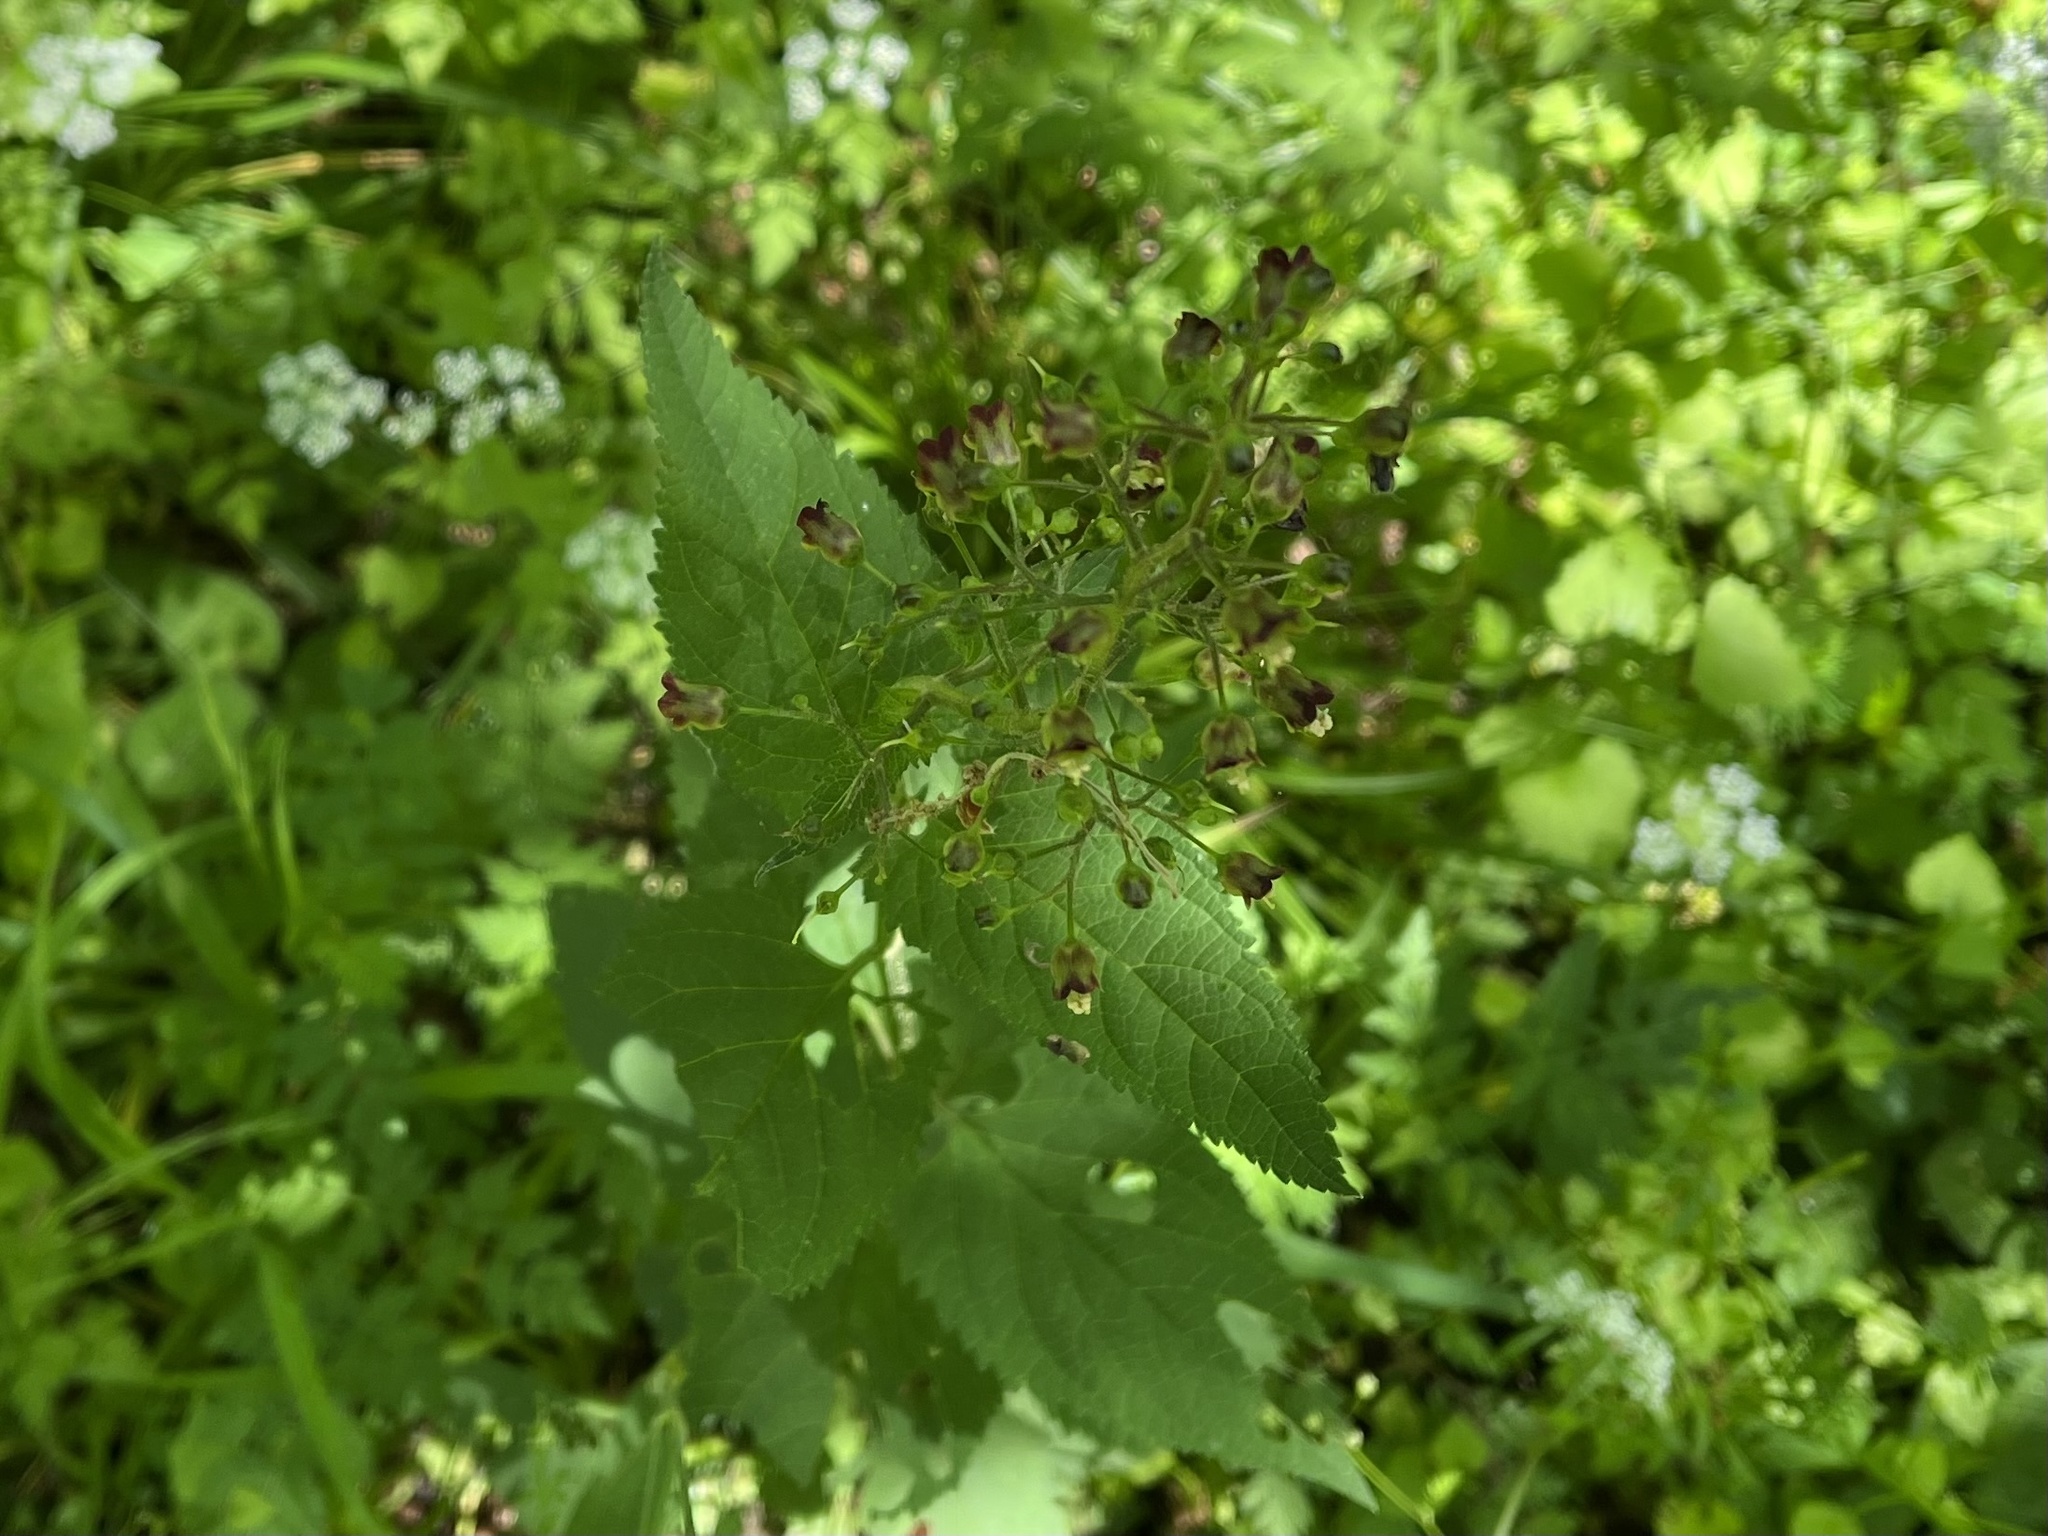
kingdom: Plantae
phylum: Tracheophyta
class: Magnoliopsida
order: Lamiales
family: Scrophulariaceae
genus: Scrophularia
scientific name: Scrophularia nodosa
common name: Common figwort
